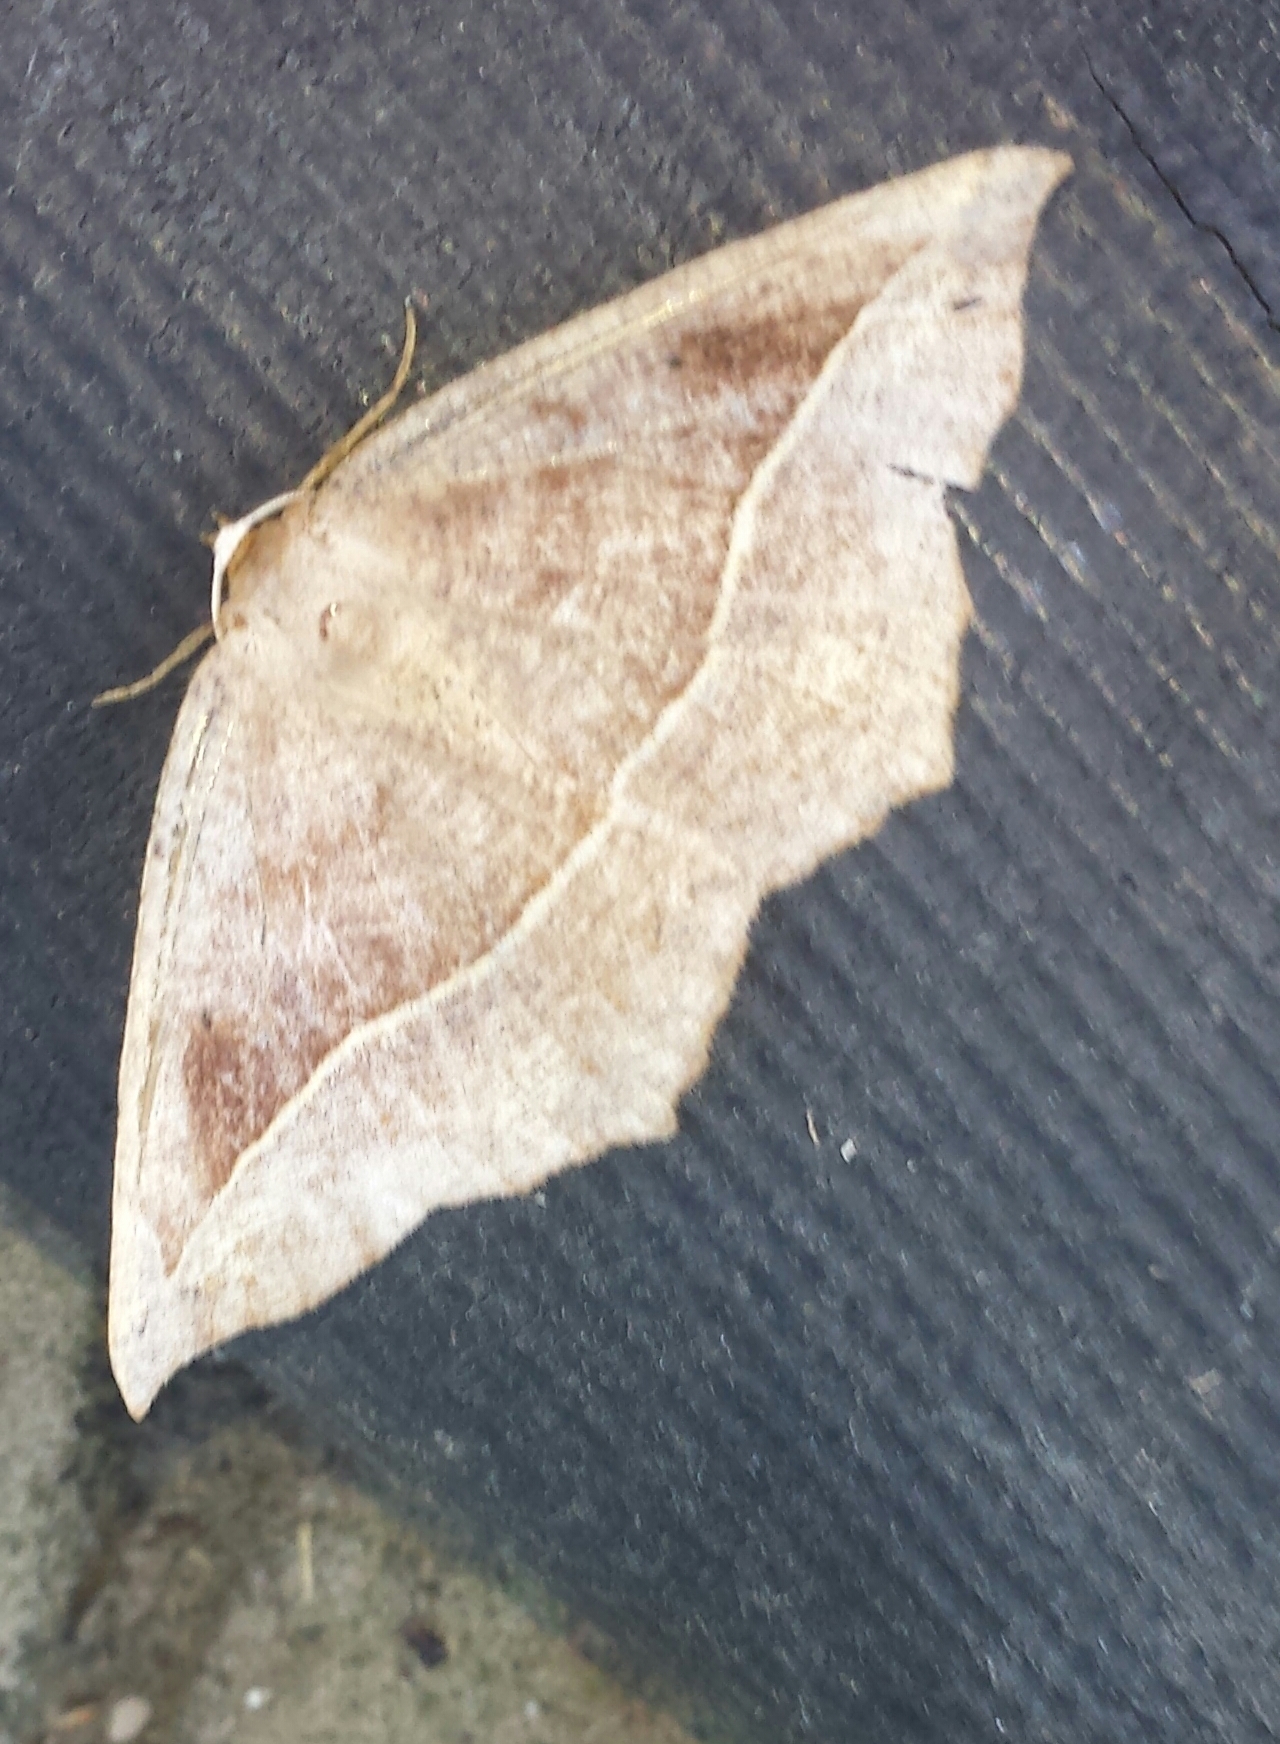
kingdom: Animalia
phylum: Arthropoda
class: Insecta
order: Lepidoptera
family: Geometridae
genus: Eutrapela
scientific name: Eutrapela clemataria
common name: Curved-toothed geometer
